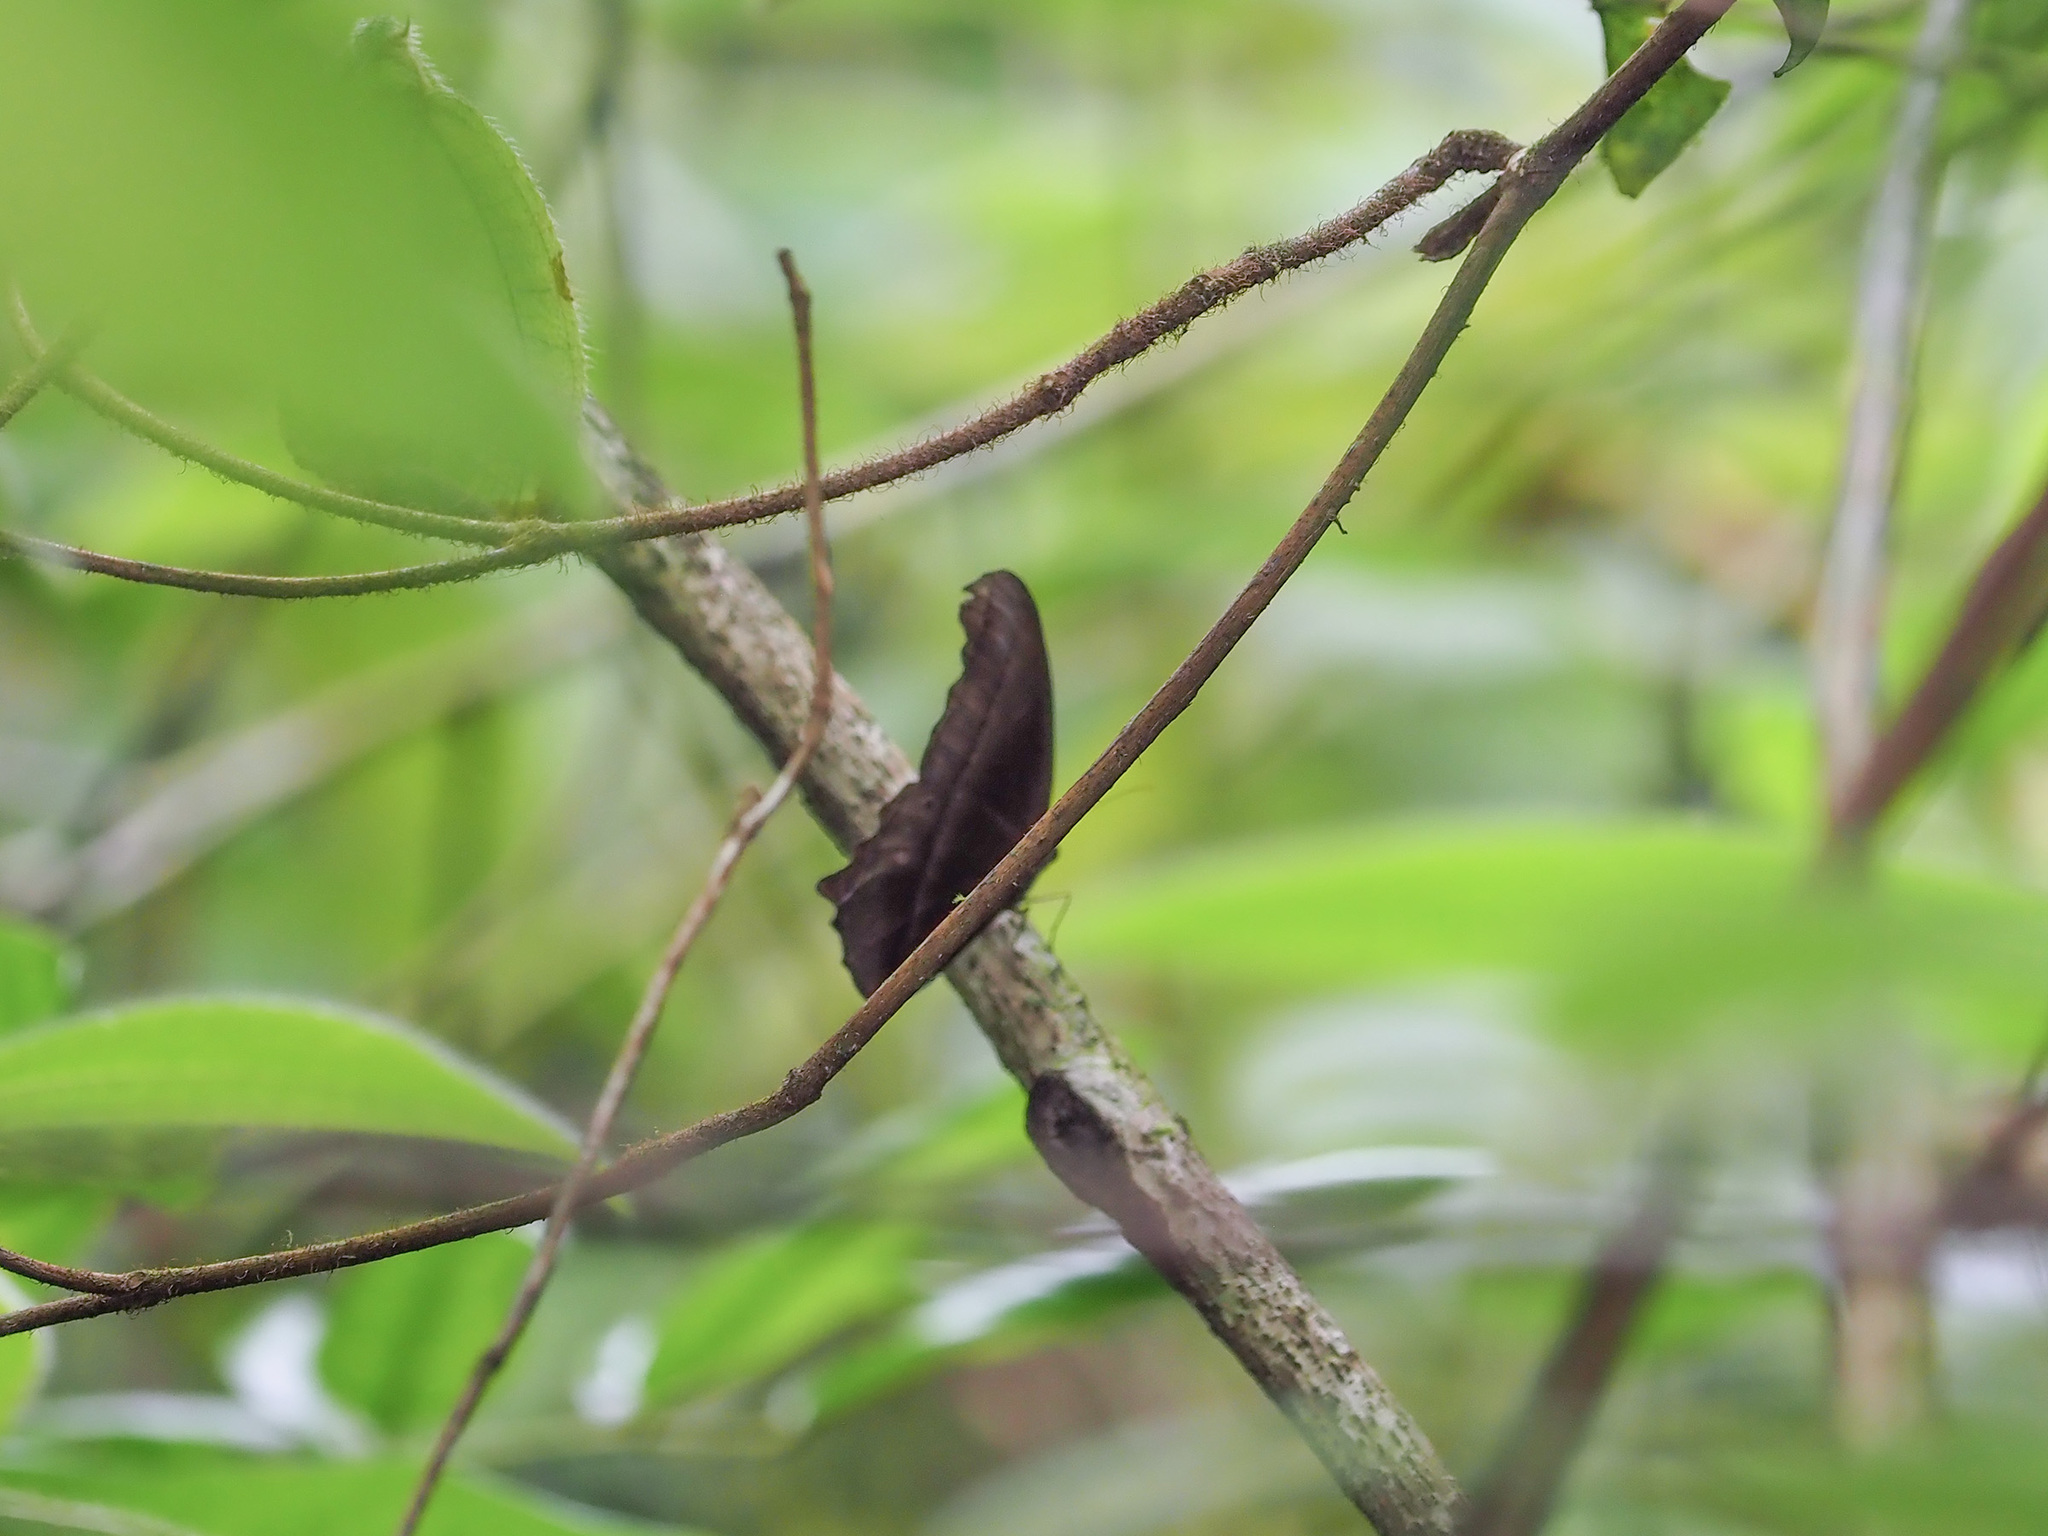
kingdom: Animalia
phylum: Arthropoda
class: Insecta
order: Lepidoptera
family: Nymphalidae
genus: Coelites
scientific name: Coelites epiminthia
